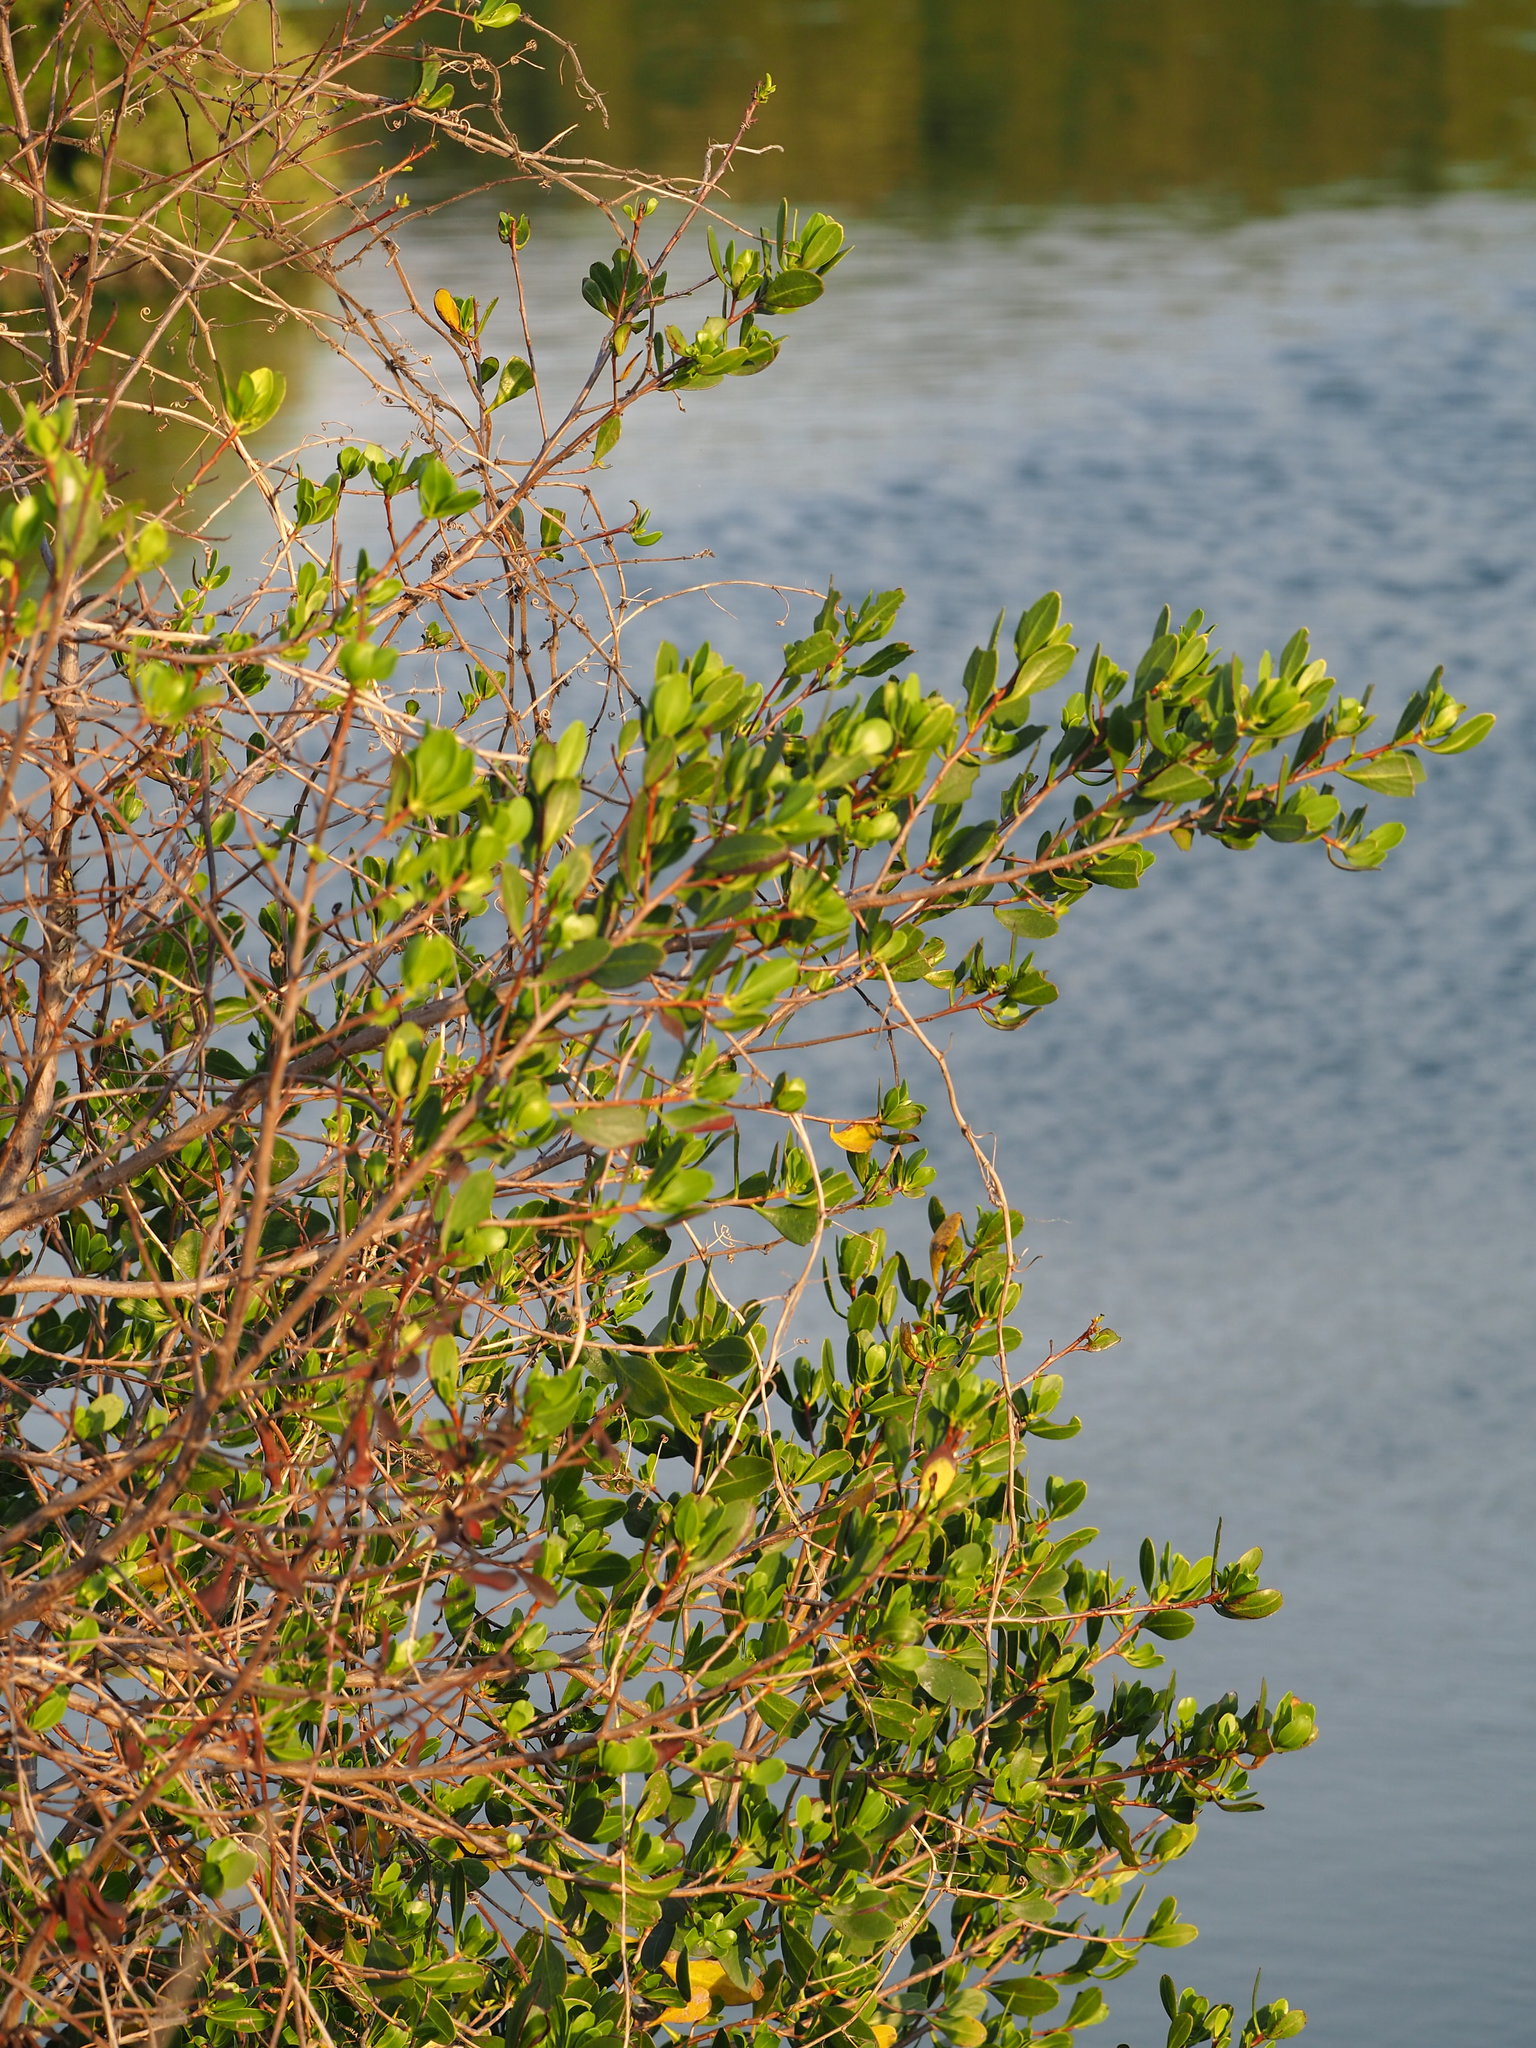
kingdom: Plantae
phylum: Tracheophyta
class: Magnoliopsida
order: Myrtales
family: Combretaceae
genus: Lumnitzera
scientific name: Lumnitzera racemosa
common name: White-flowered black mangrove
